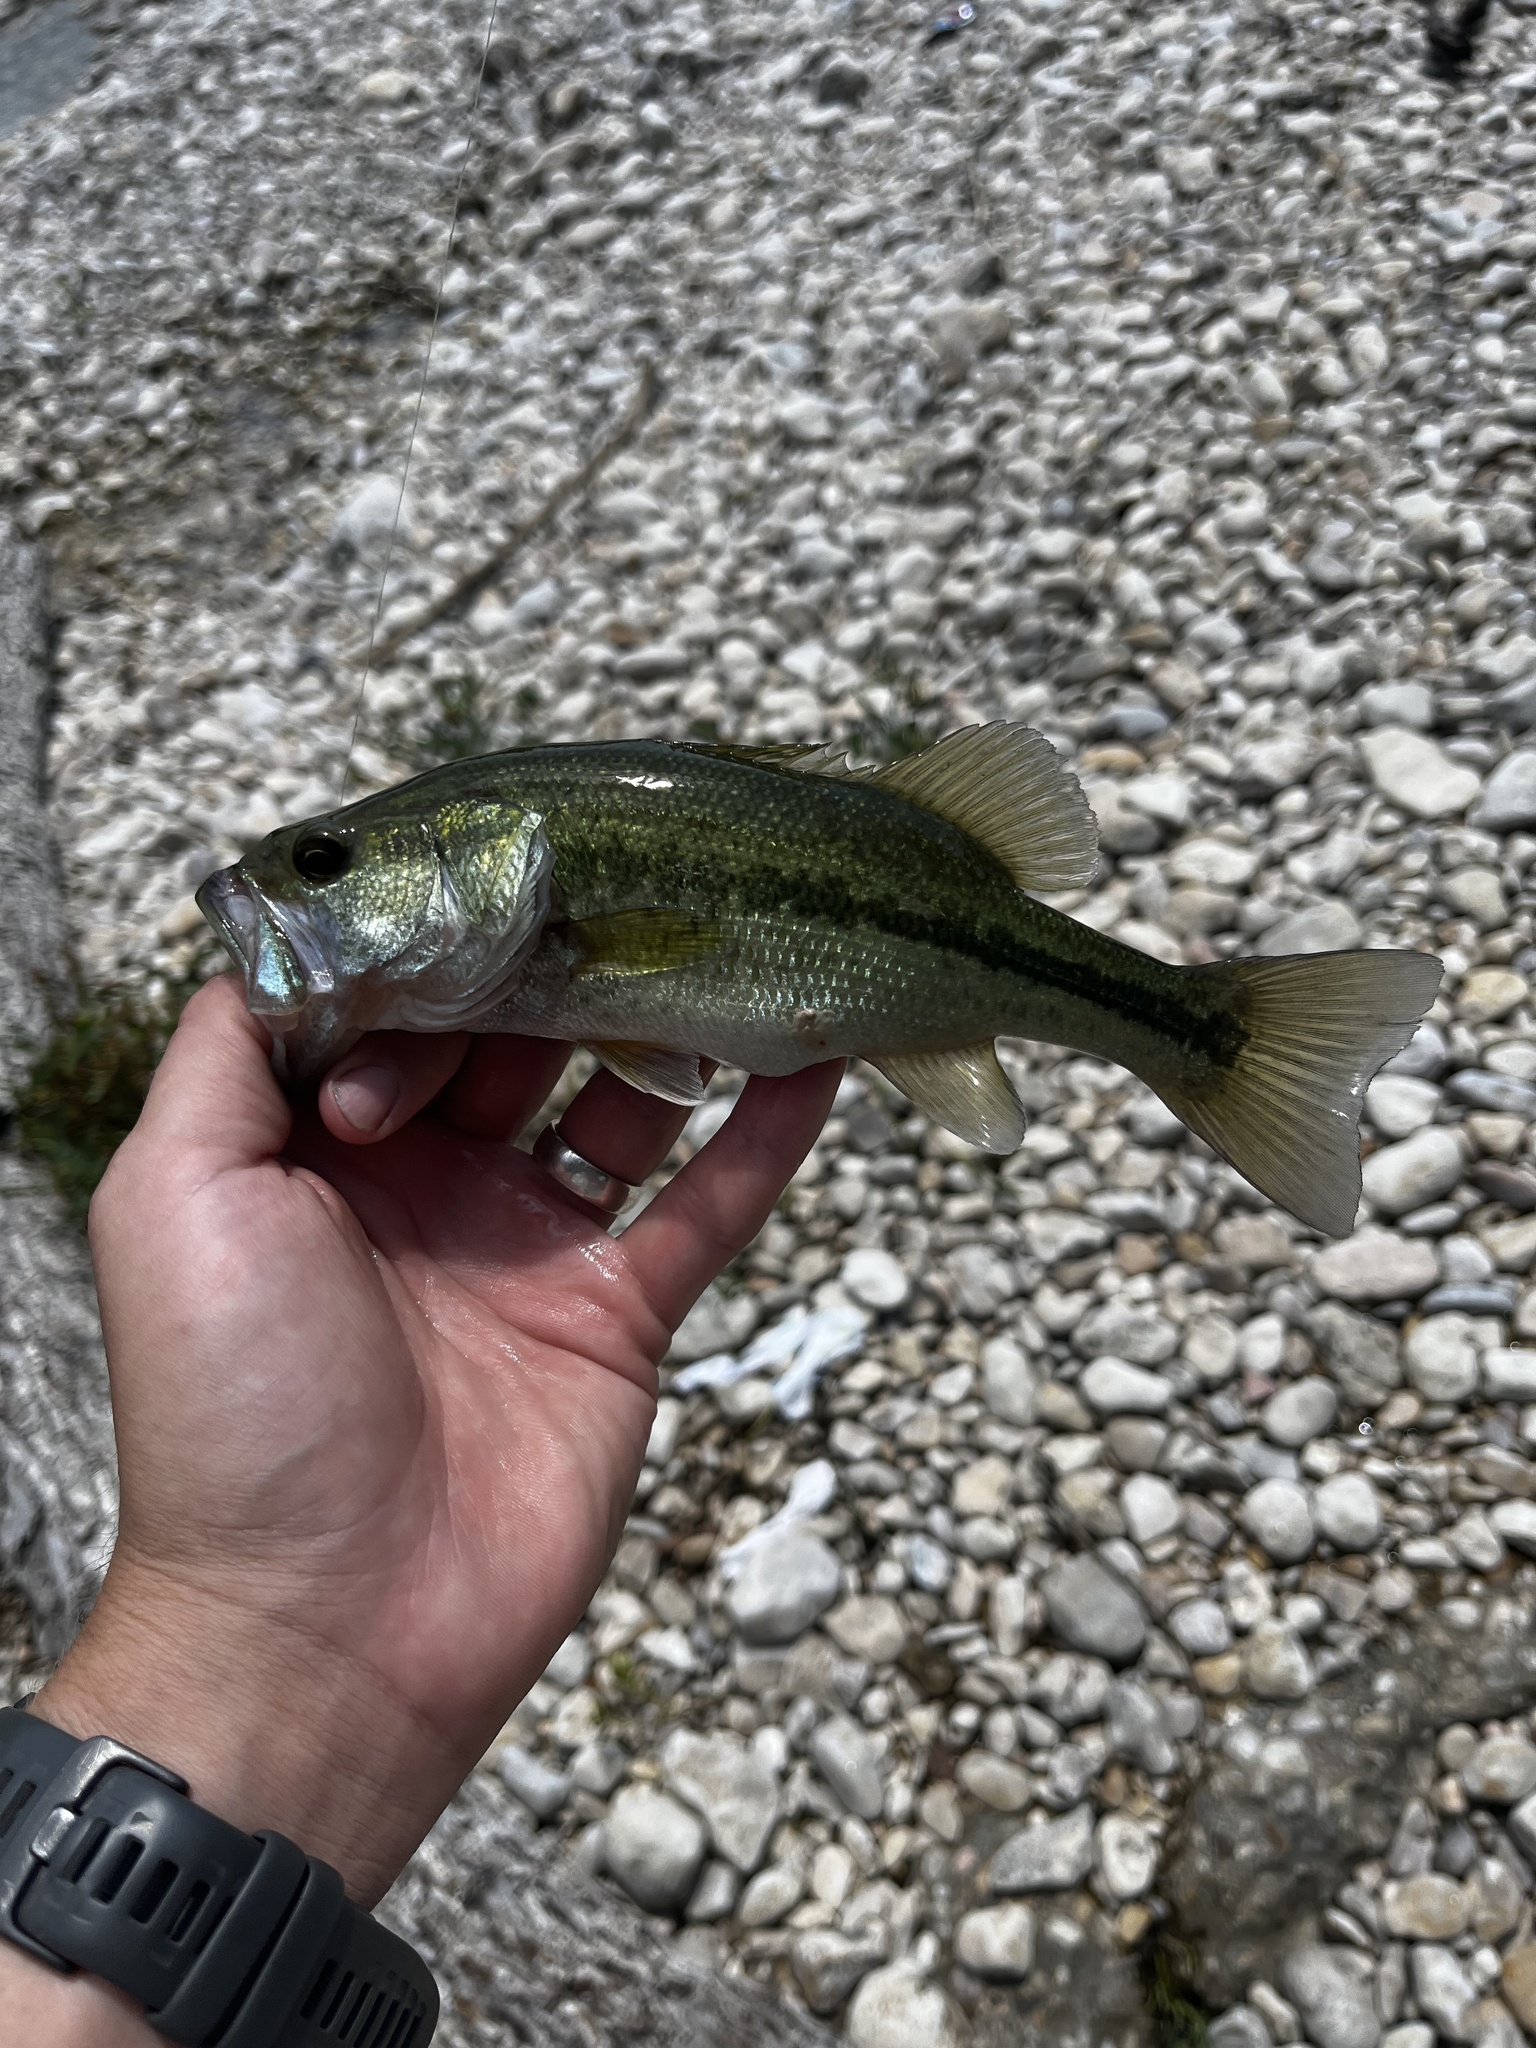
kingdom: Animalia
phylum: Chordata
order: Perciformes
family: Centrarchidae
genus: Micropterus
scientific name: Micropterus
